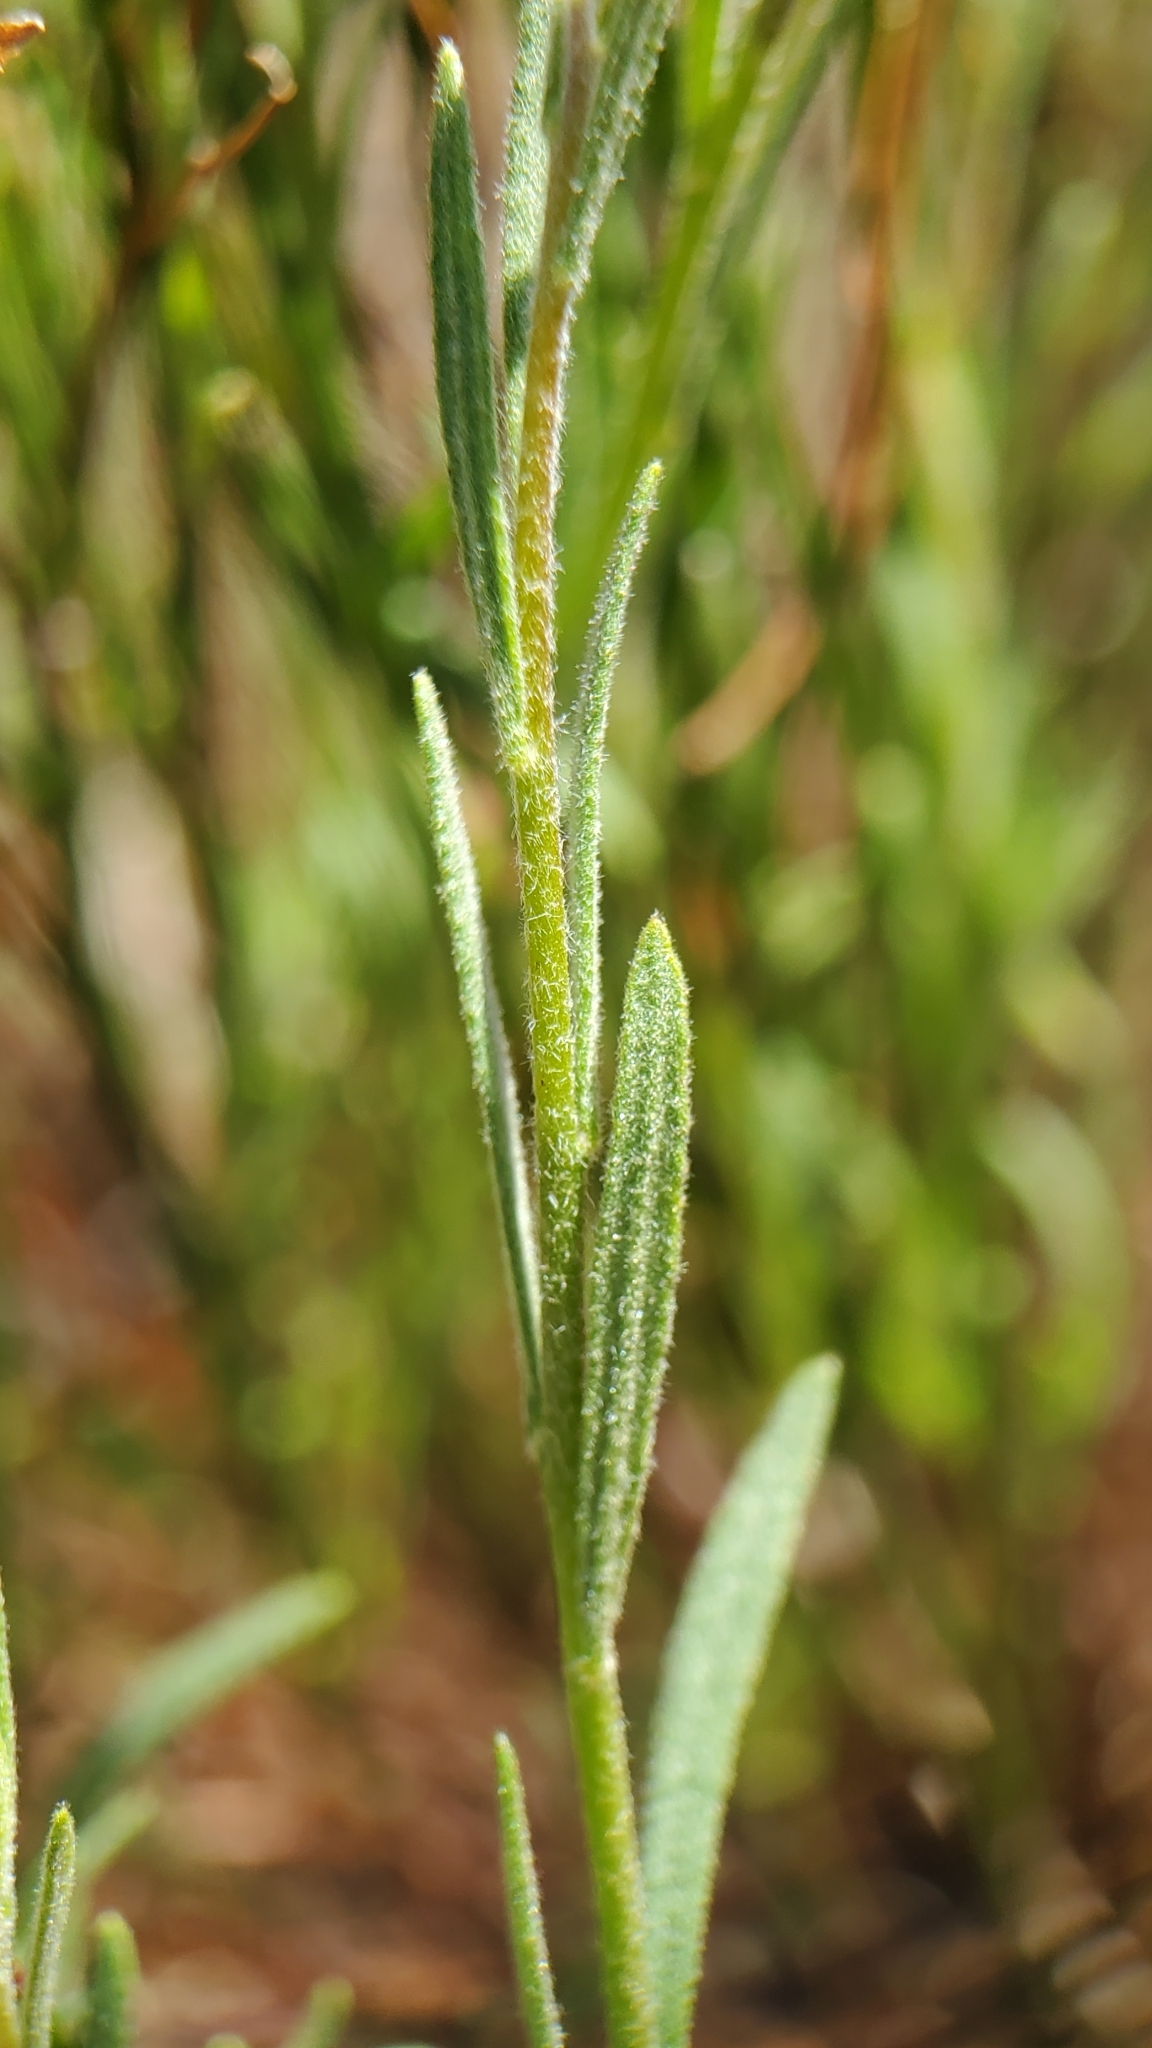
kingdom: Plantae
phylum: Tracheophyta
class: Magnoliopsida
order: Malvales
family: Cistaceae
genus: Crocanthemum
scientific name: Crocanthemum scoparium
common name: Broom-rose
